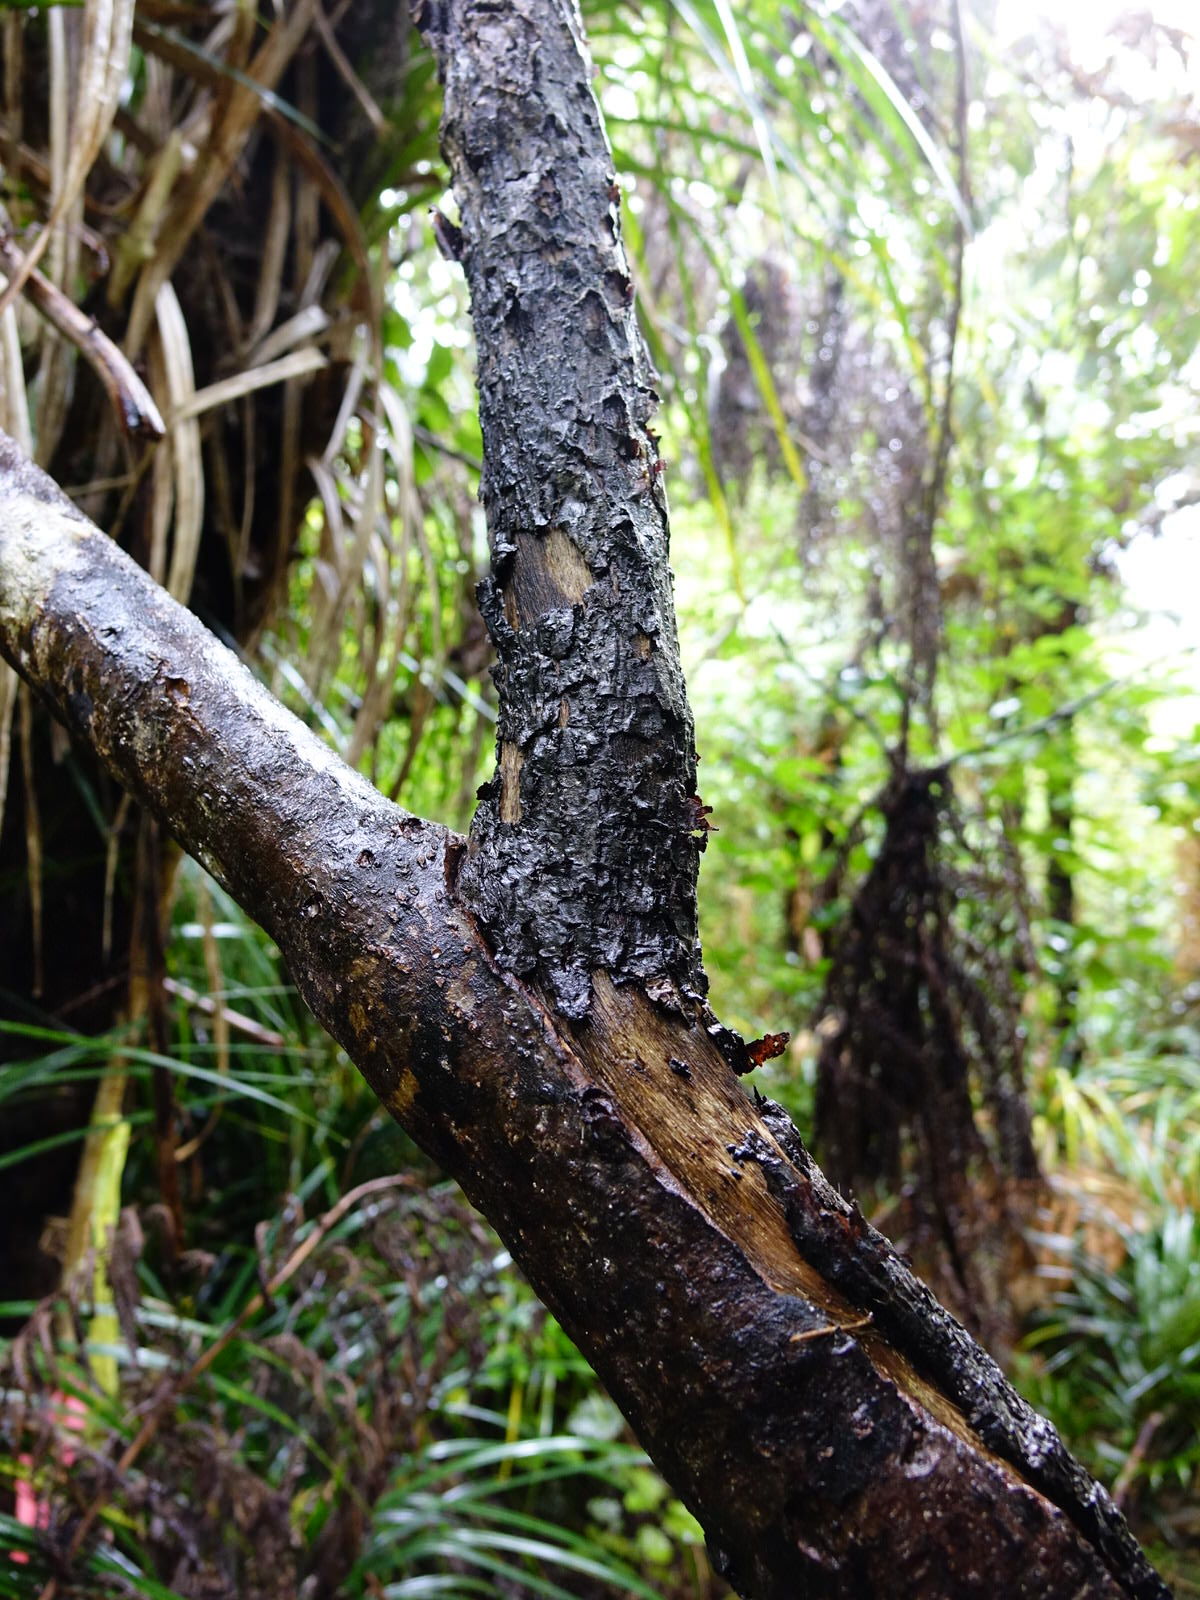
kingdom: Plantae
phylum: Tracheophyta
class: Magnoliopsida
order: Gentianales
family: Rubiaceae
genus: Coprosma
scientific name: Coprosma autumnalis
